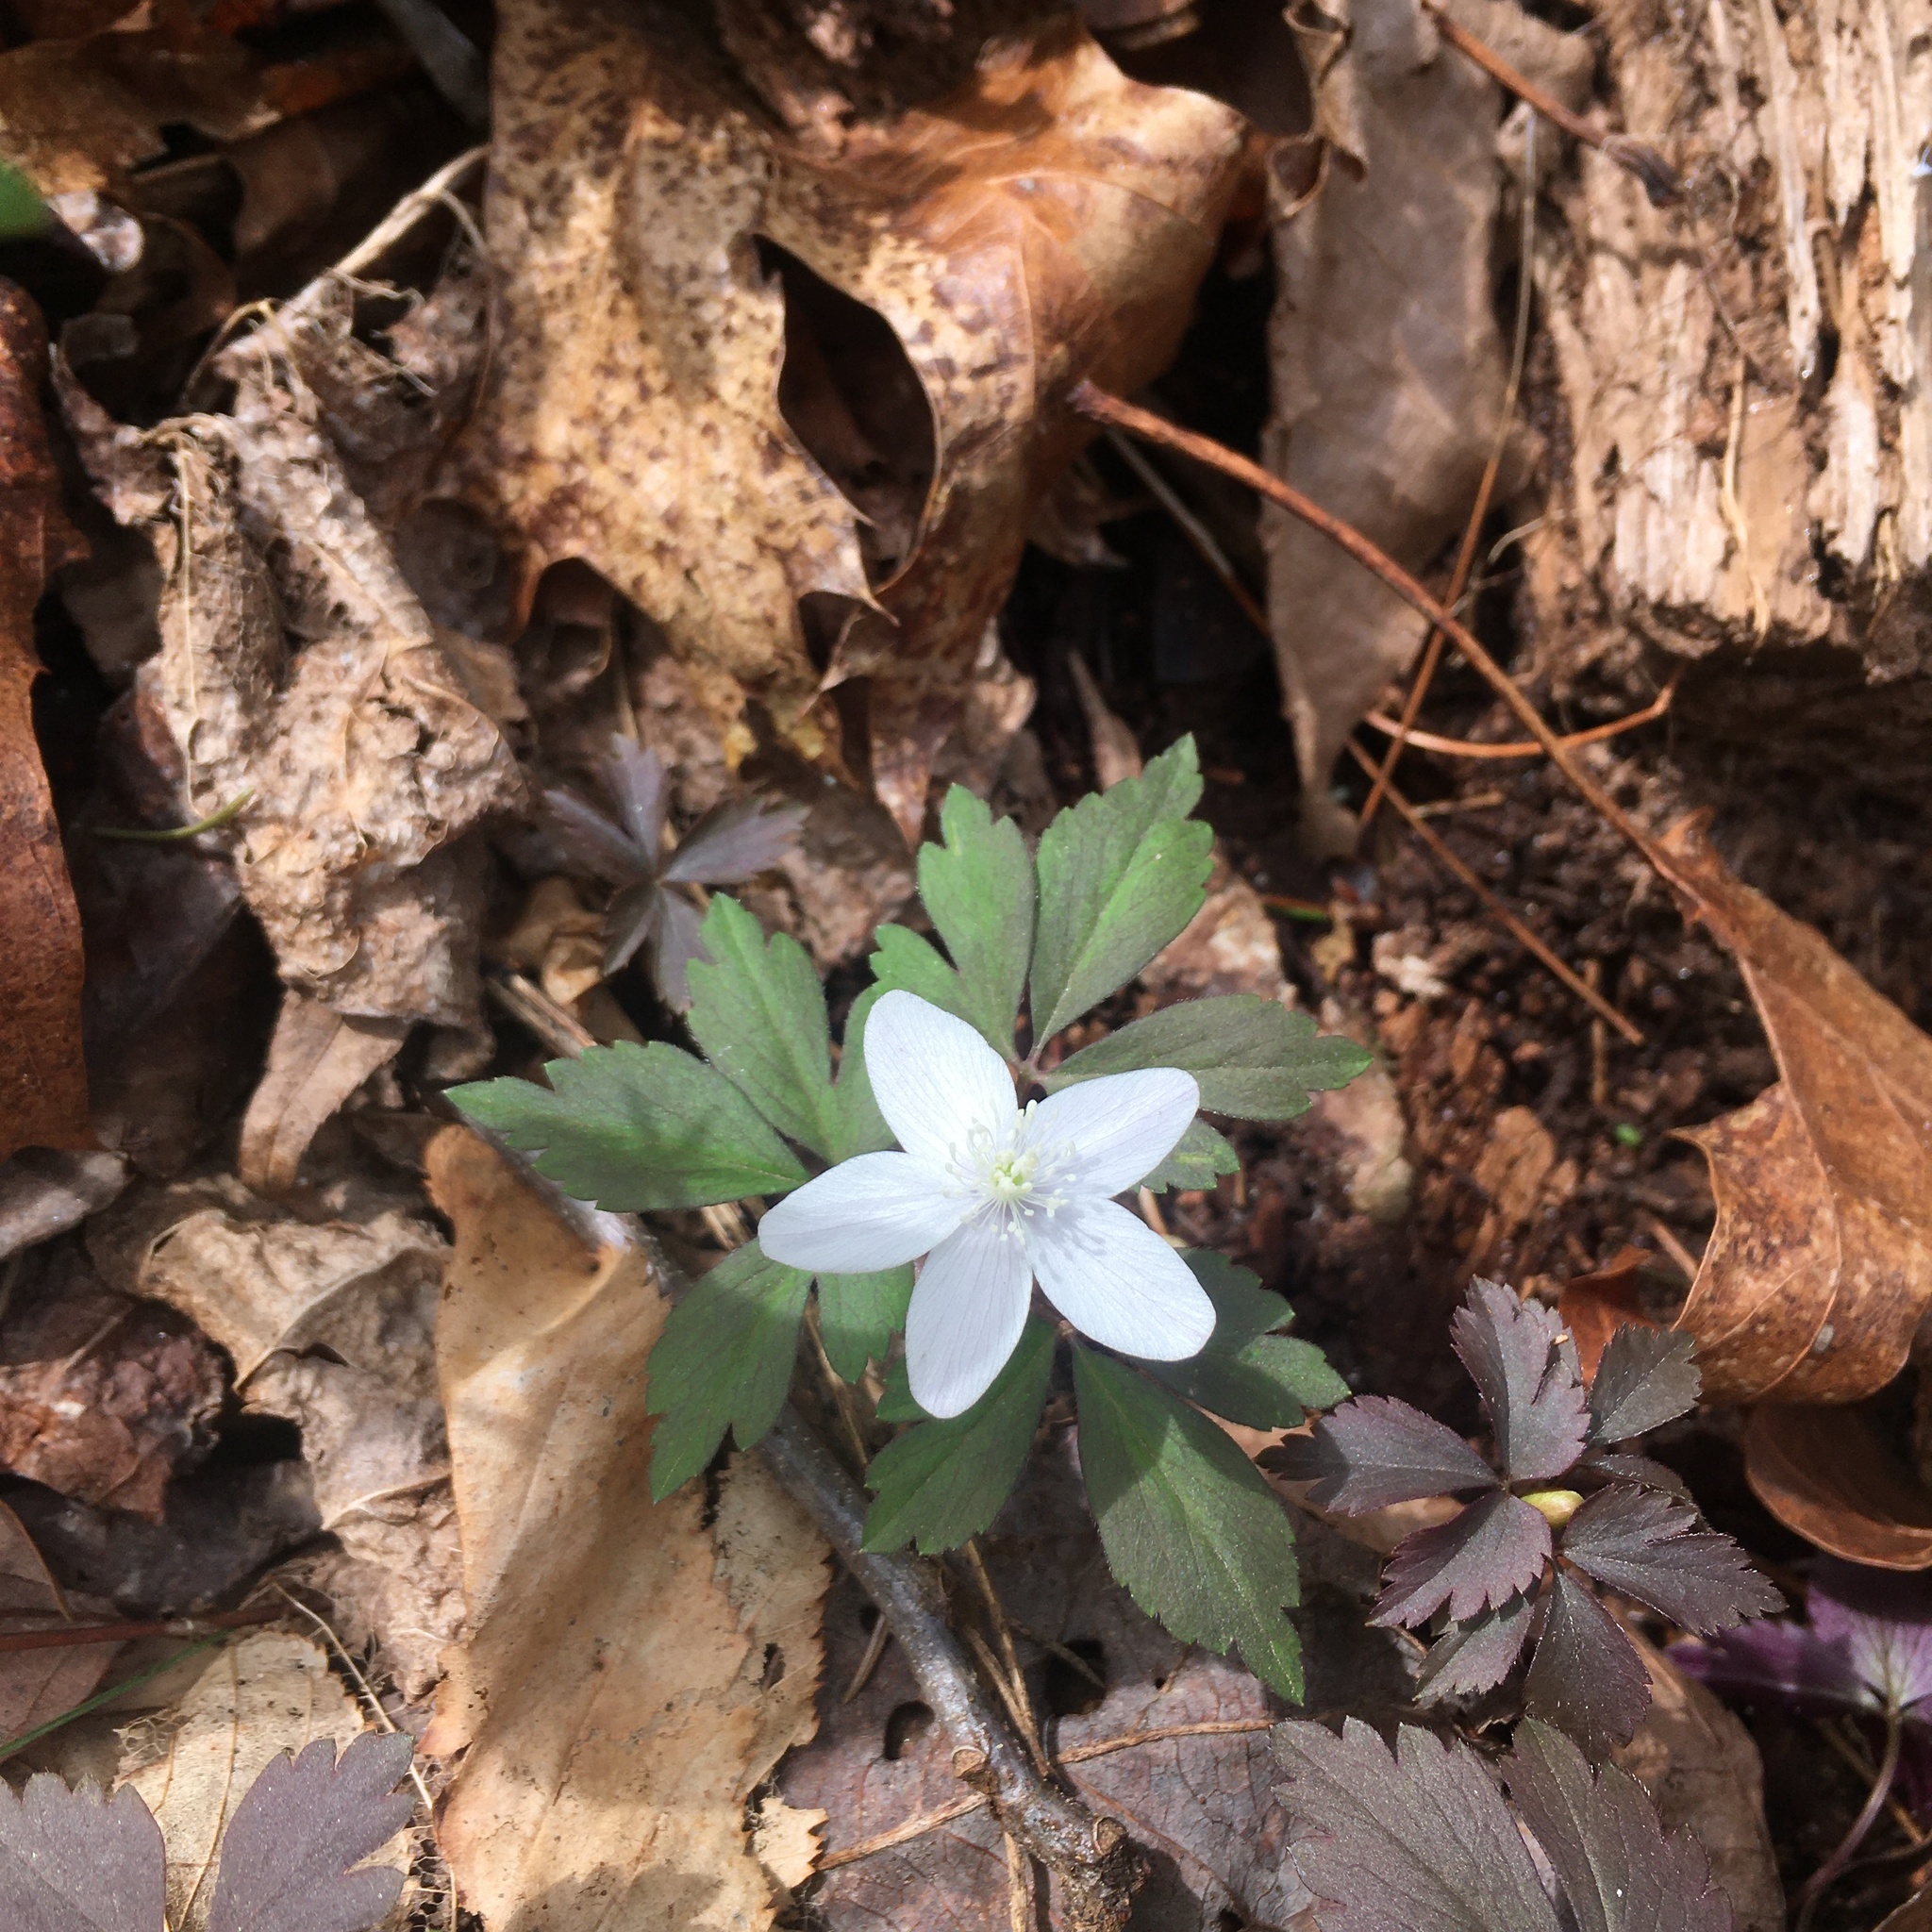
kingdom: Plantae
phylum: Tracheophyta
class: Magnoliopsida
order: Ranunculales
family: Ranunculaceae
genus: Anemone
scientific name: Anemone quinquefolia
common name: Wood anemone
